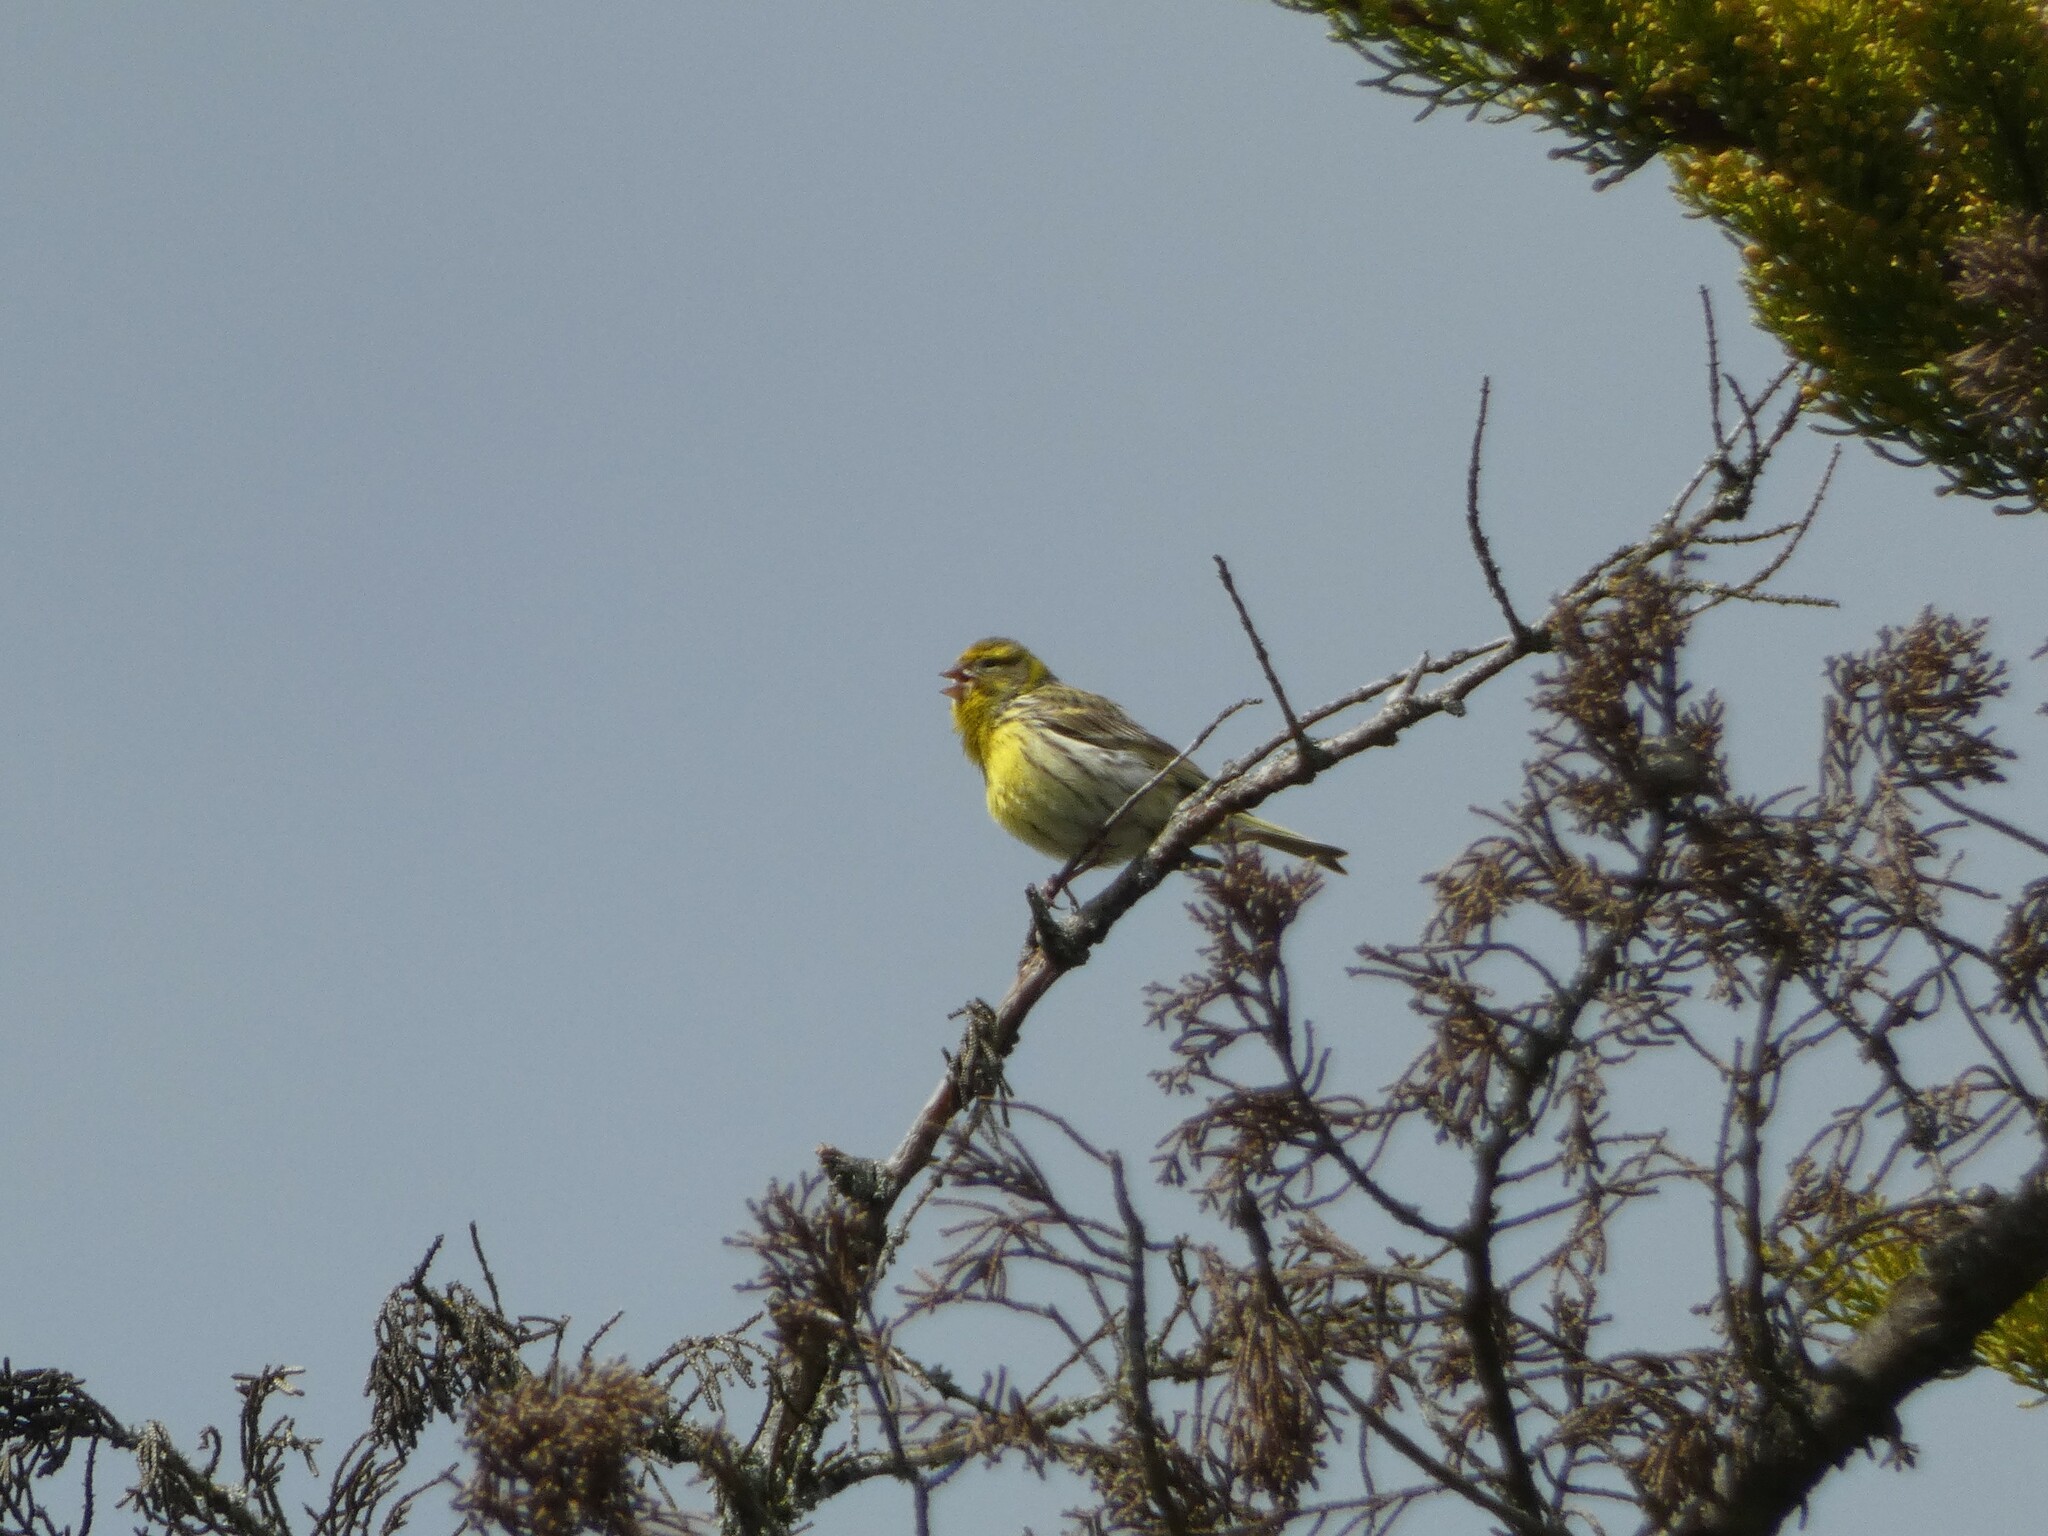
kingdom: Animalia
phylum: Chordata
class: Aves
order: Passeriformes
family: Fringillidae
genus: Serinus
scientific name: Serinus serinus
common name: European serin
